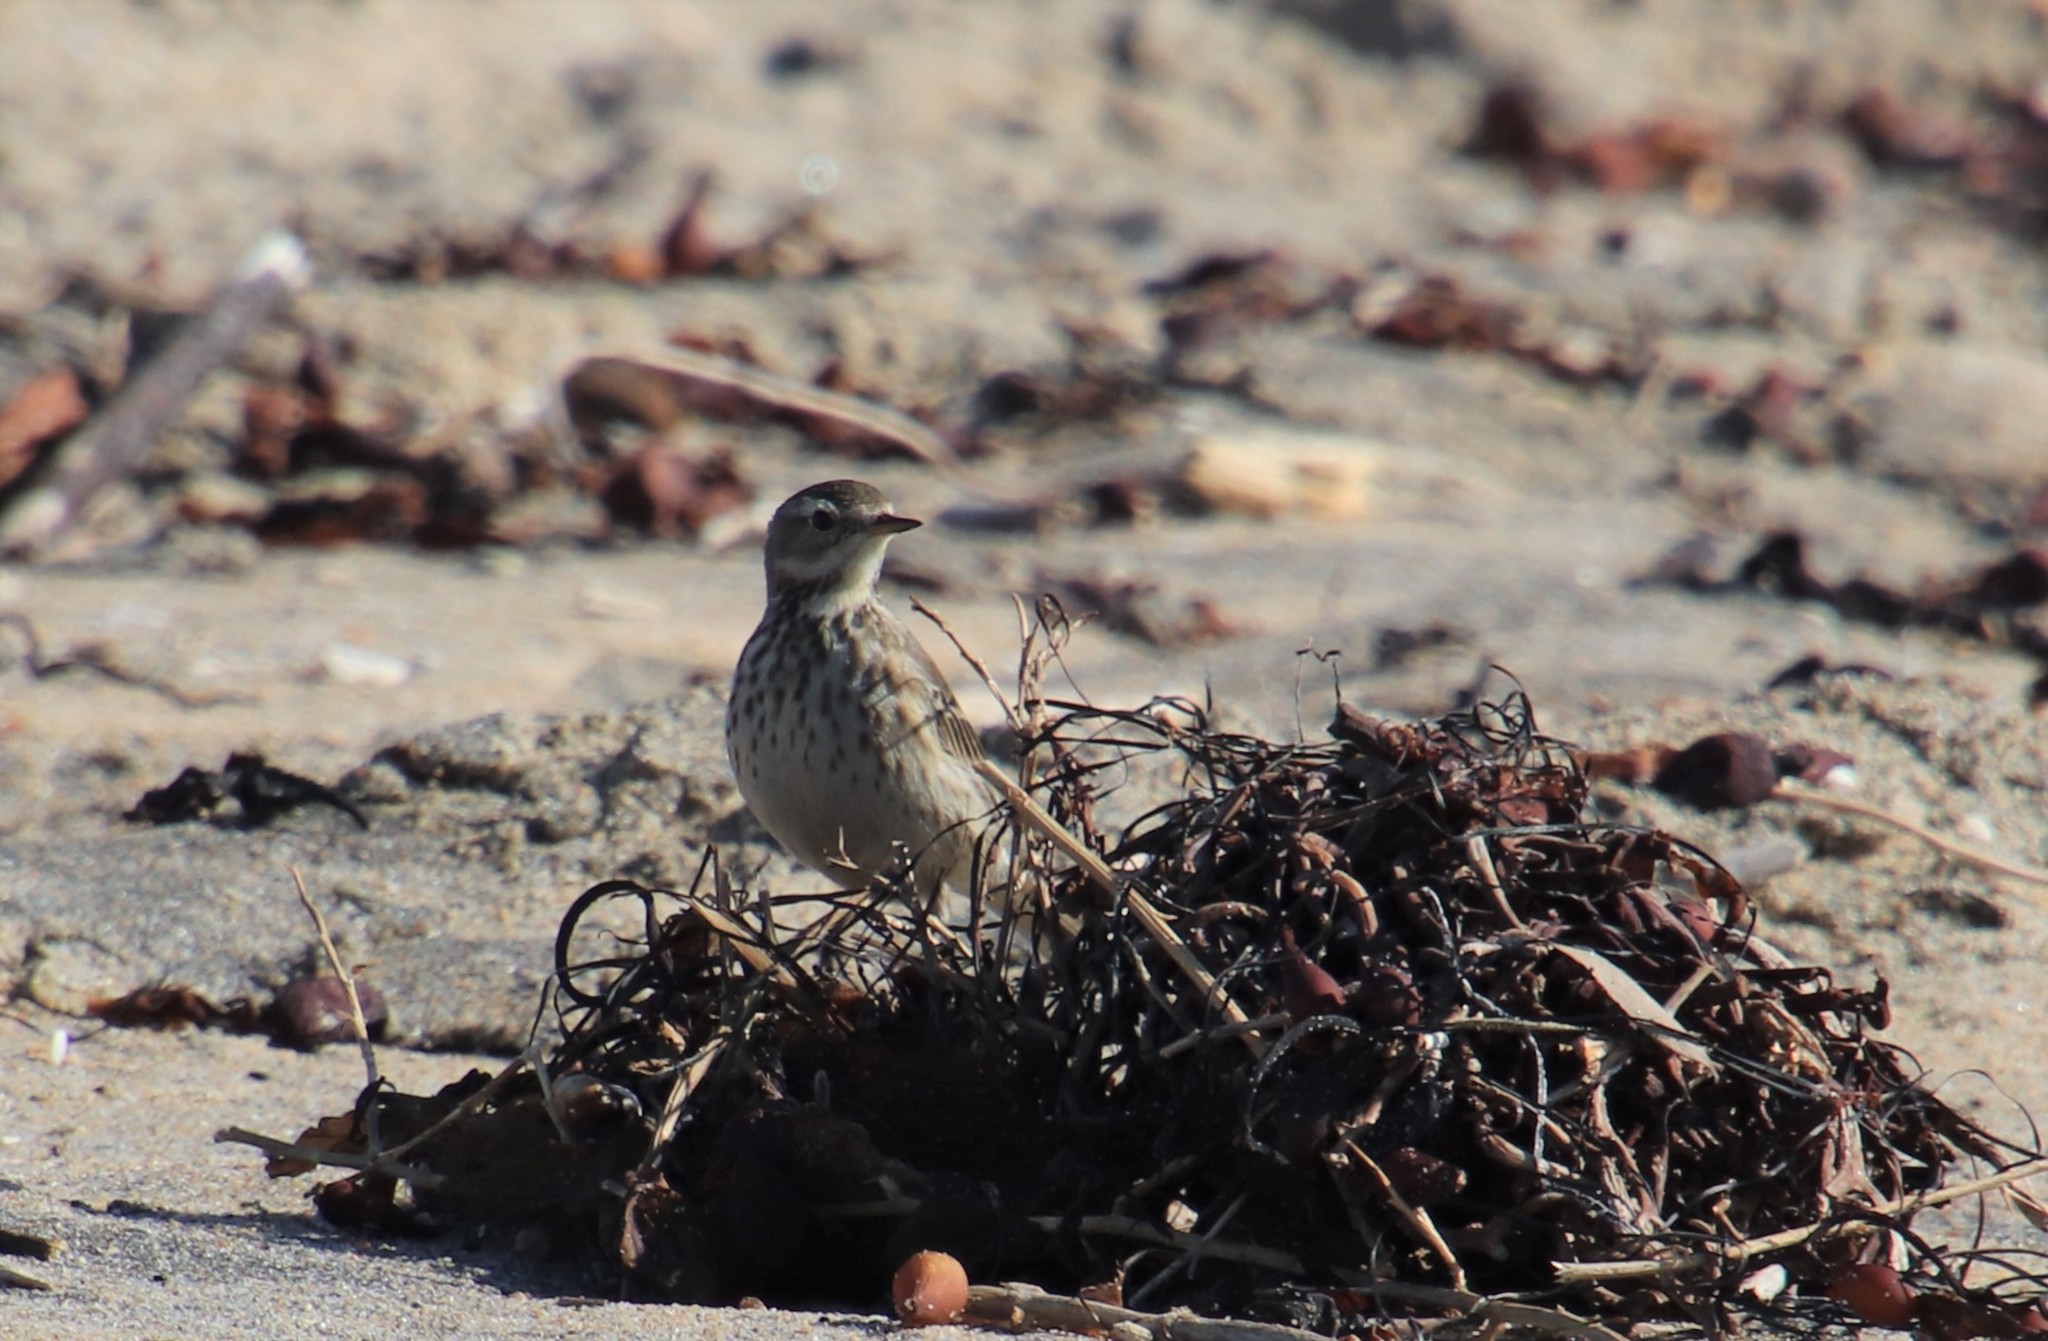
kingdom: Animalia
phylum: Chordata
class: Aves
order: Passeriformes
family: Motacillidae
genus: Anthus
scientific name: Anthus rubescens
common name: Buff-bellied pipit
